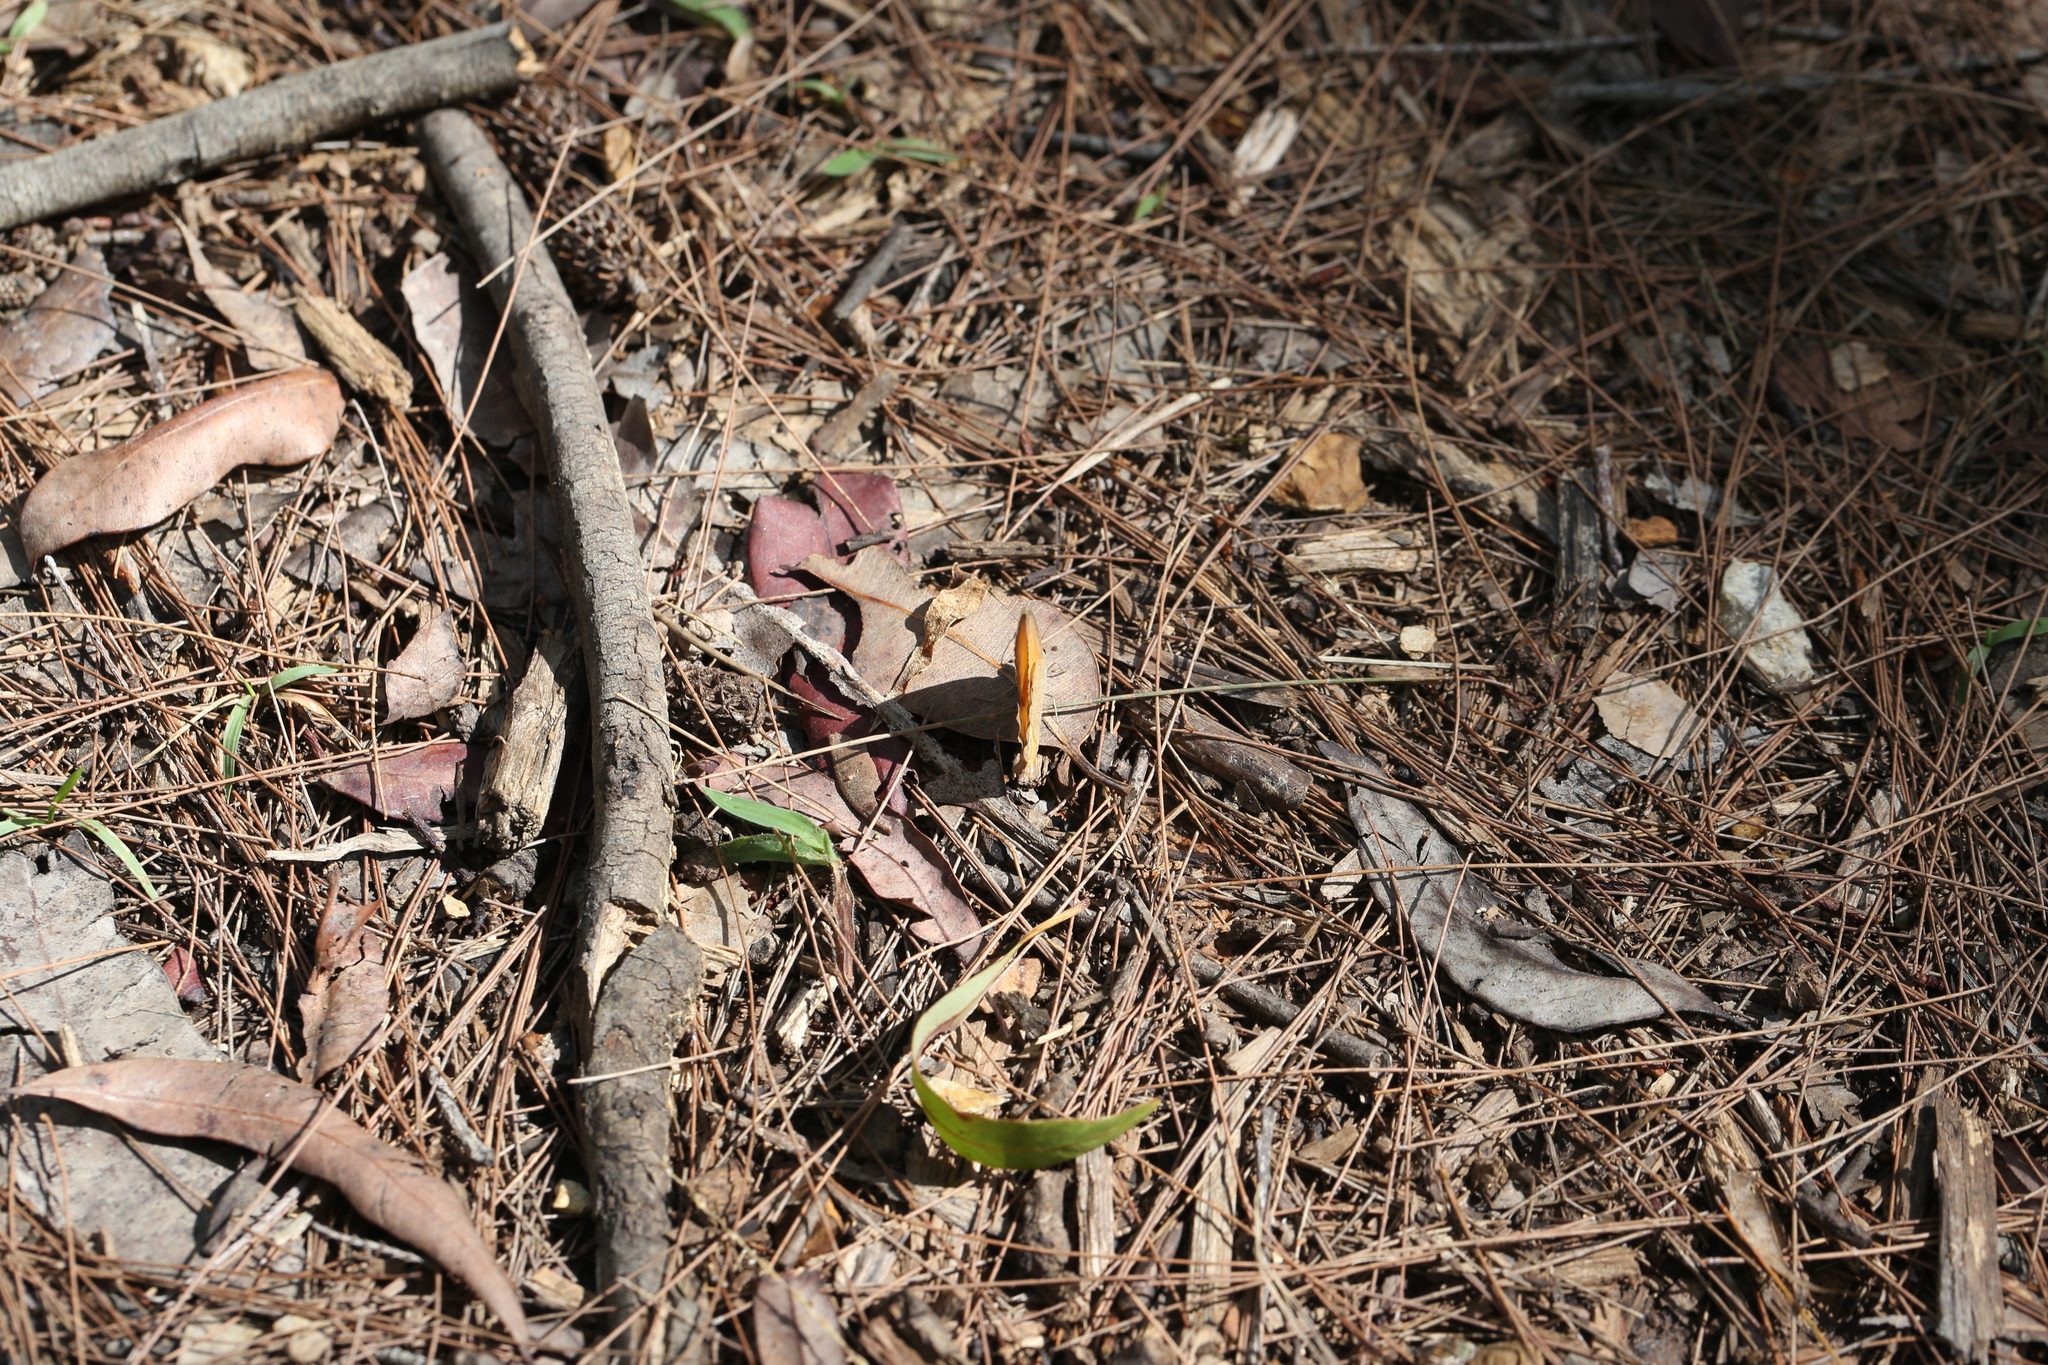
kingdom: Animalia
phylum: Arthropoda
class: Insecta
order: Lepidoptera
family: Nymphalidae
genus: Hypocysta
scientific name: Hypocysta adiante
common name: Orange ringlet
